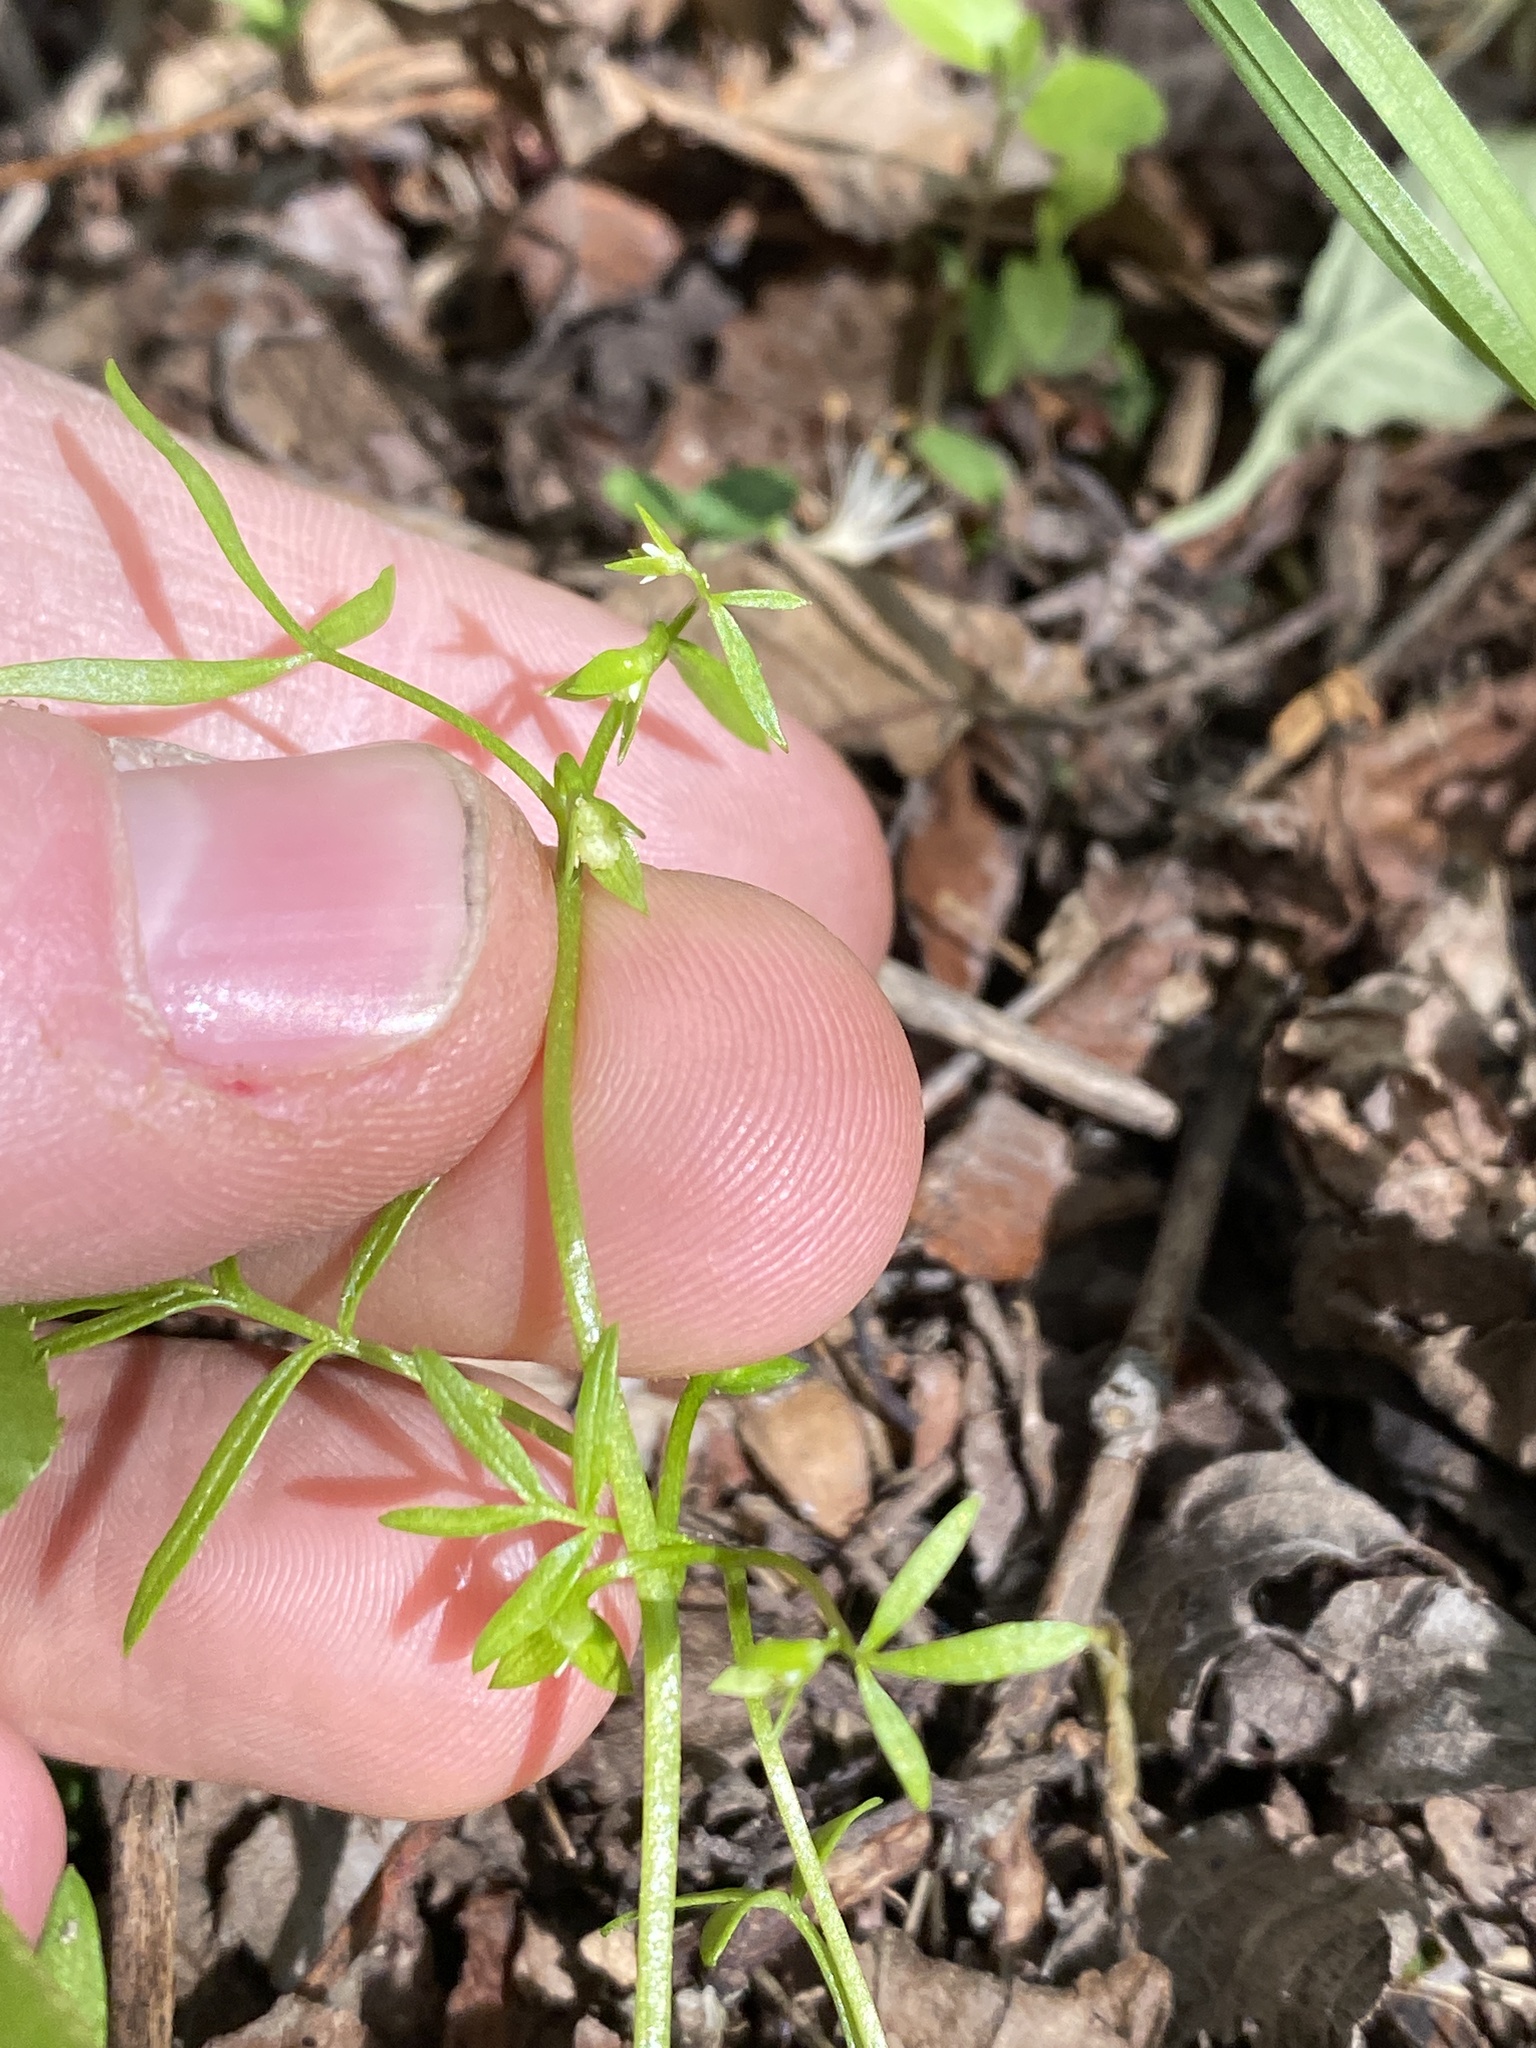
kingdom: Plantae
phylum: Tracheophyta
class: Magnoliopsida
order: Brassicales
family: Limnanthaceae
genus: Floerkea
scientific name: Floerkea proserpinacoides
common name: False mermaid
